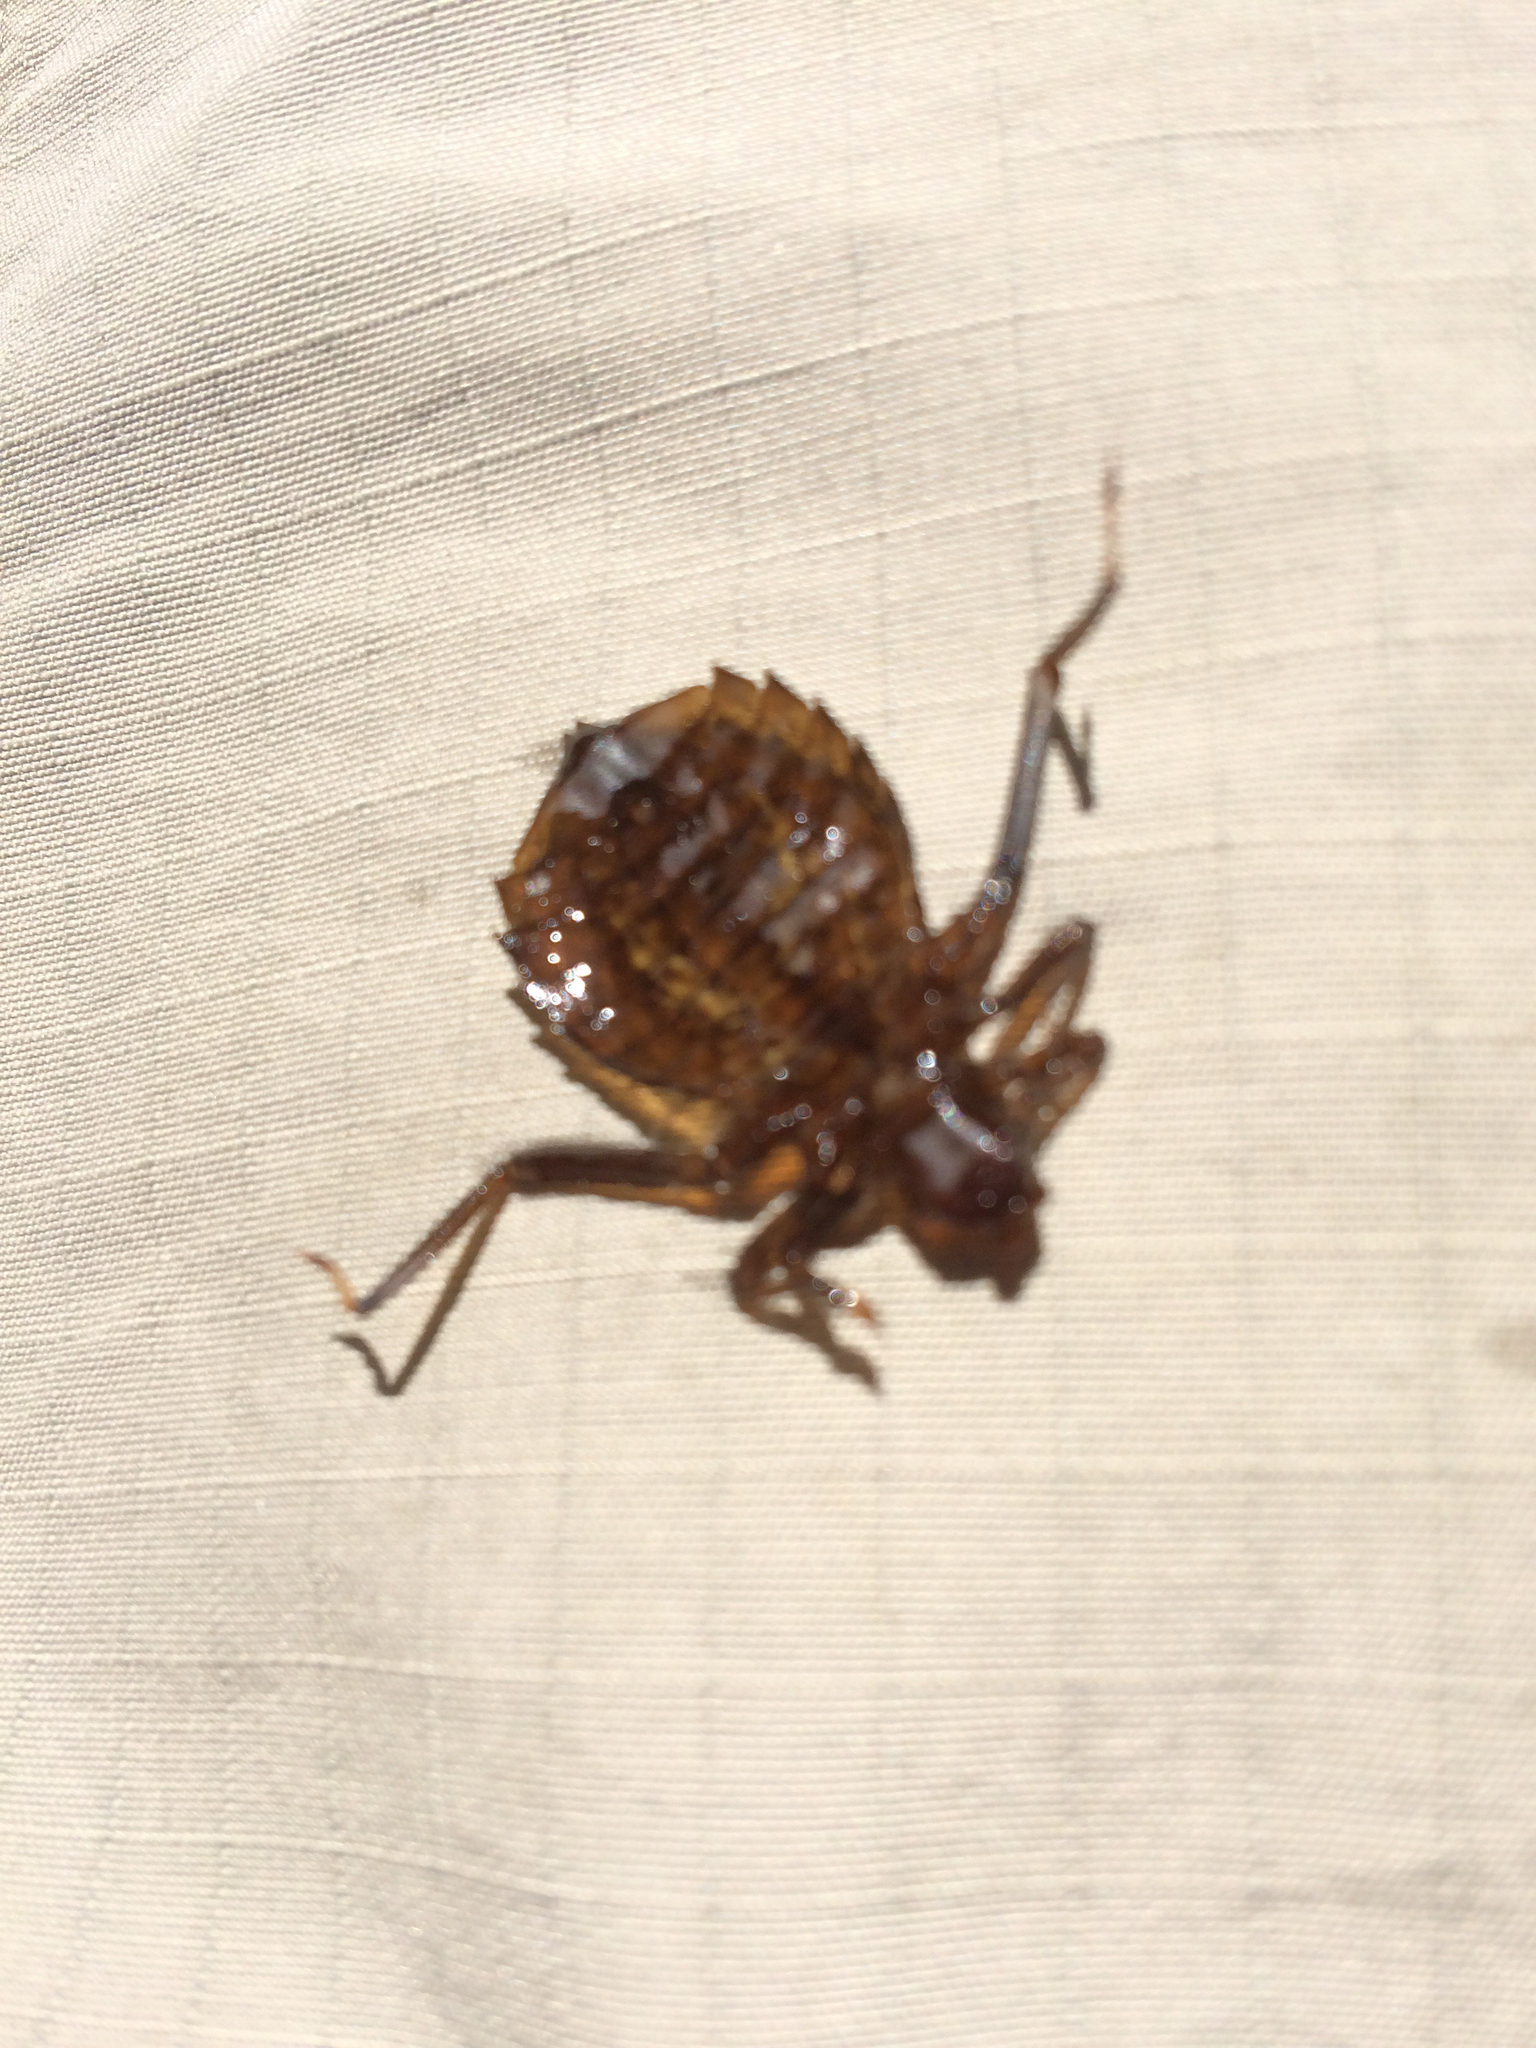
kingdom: Animalia
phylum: Arthropoda
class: Insecta
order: Odonata
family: Gomphidae
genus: Hagenius
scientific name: Hagenius brevistylus
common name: Dragonhunter
